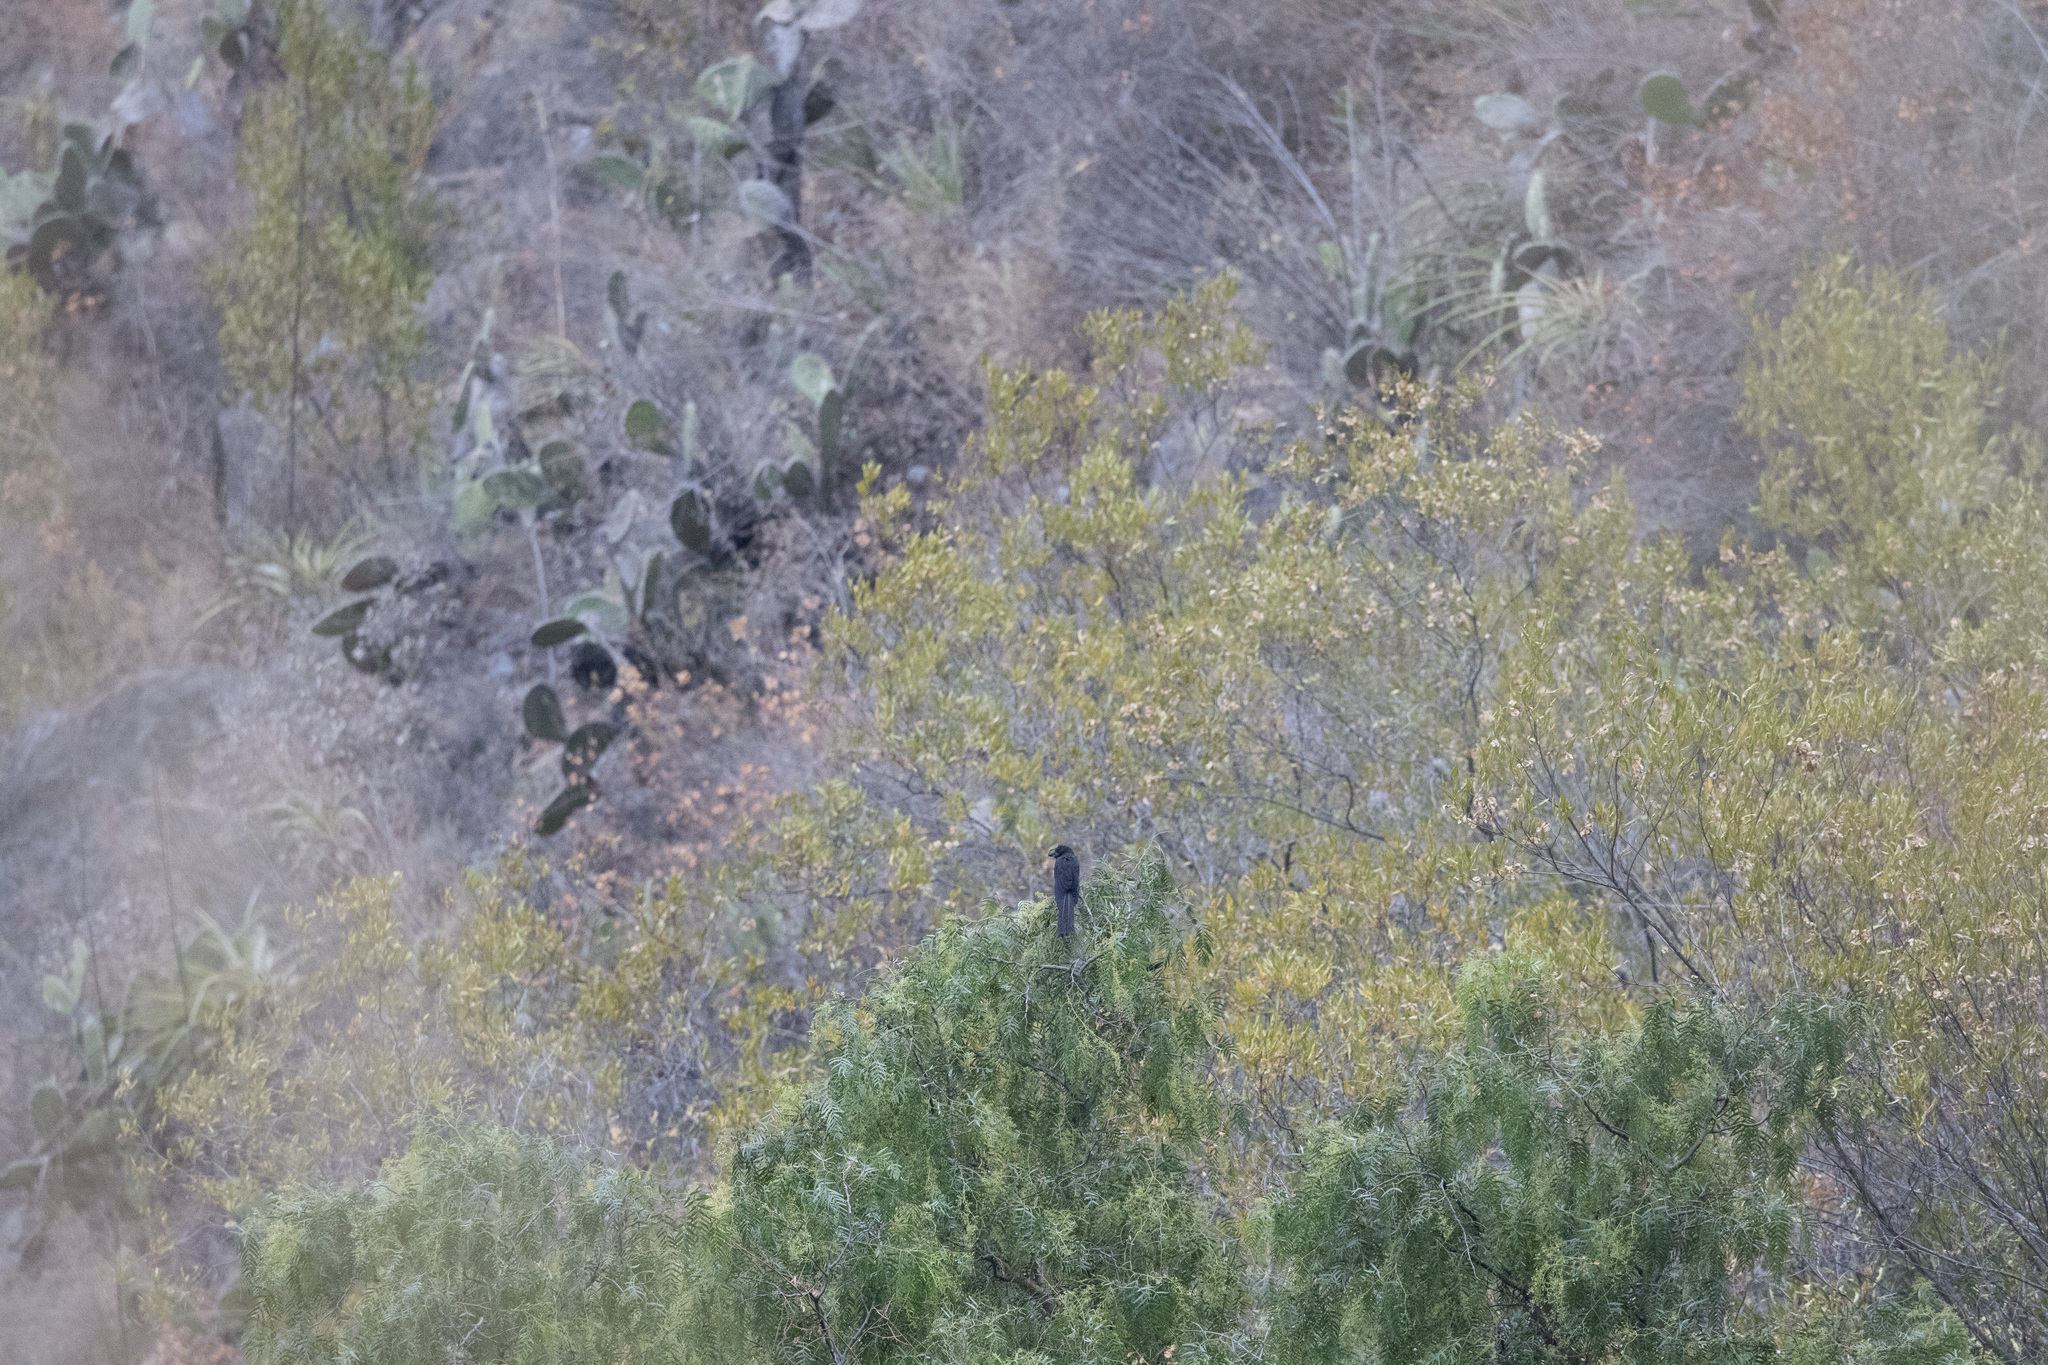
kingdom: Animalia
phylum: Chordata
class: Aves
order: Cuculiformes
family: Cuculidae
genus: Crotophaga
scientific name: Crotophaga ani
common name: Smooth-billed ani
